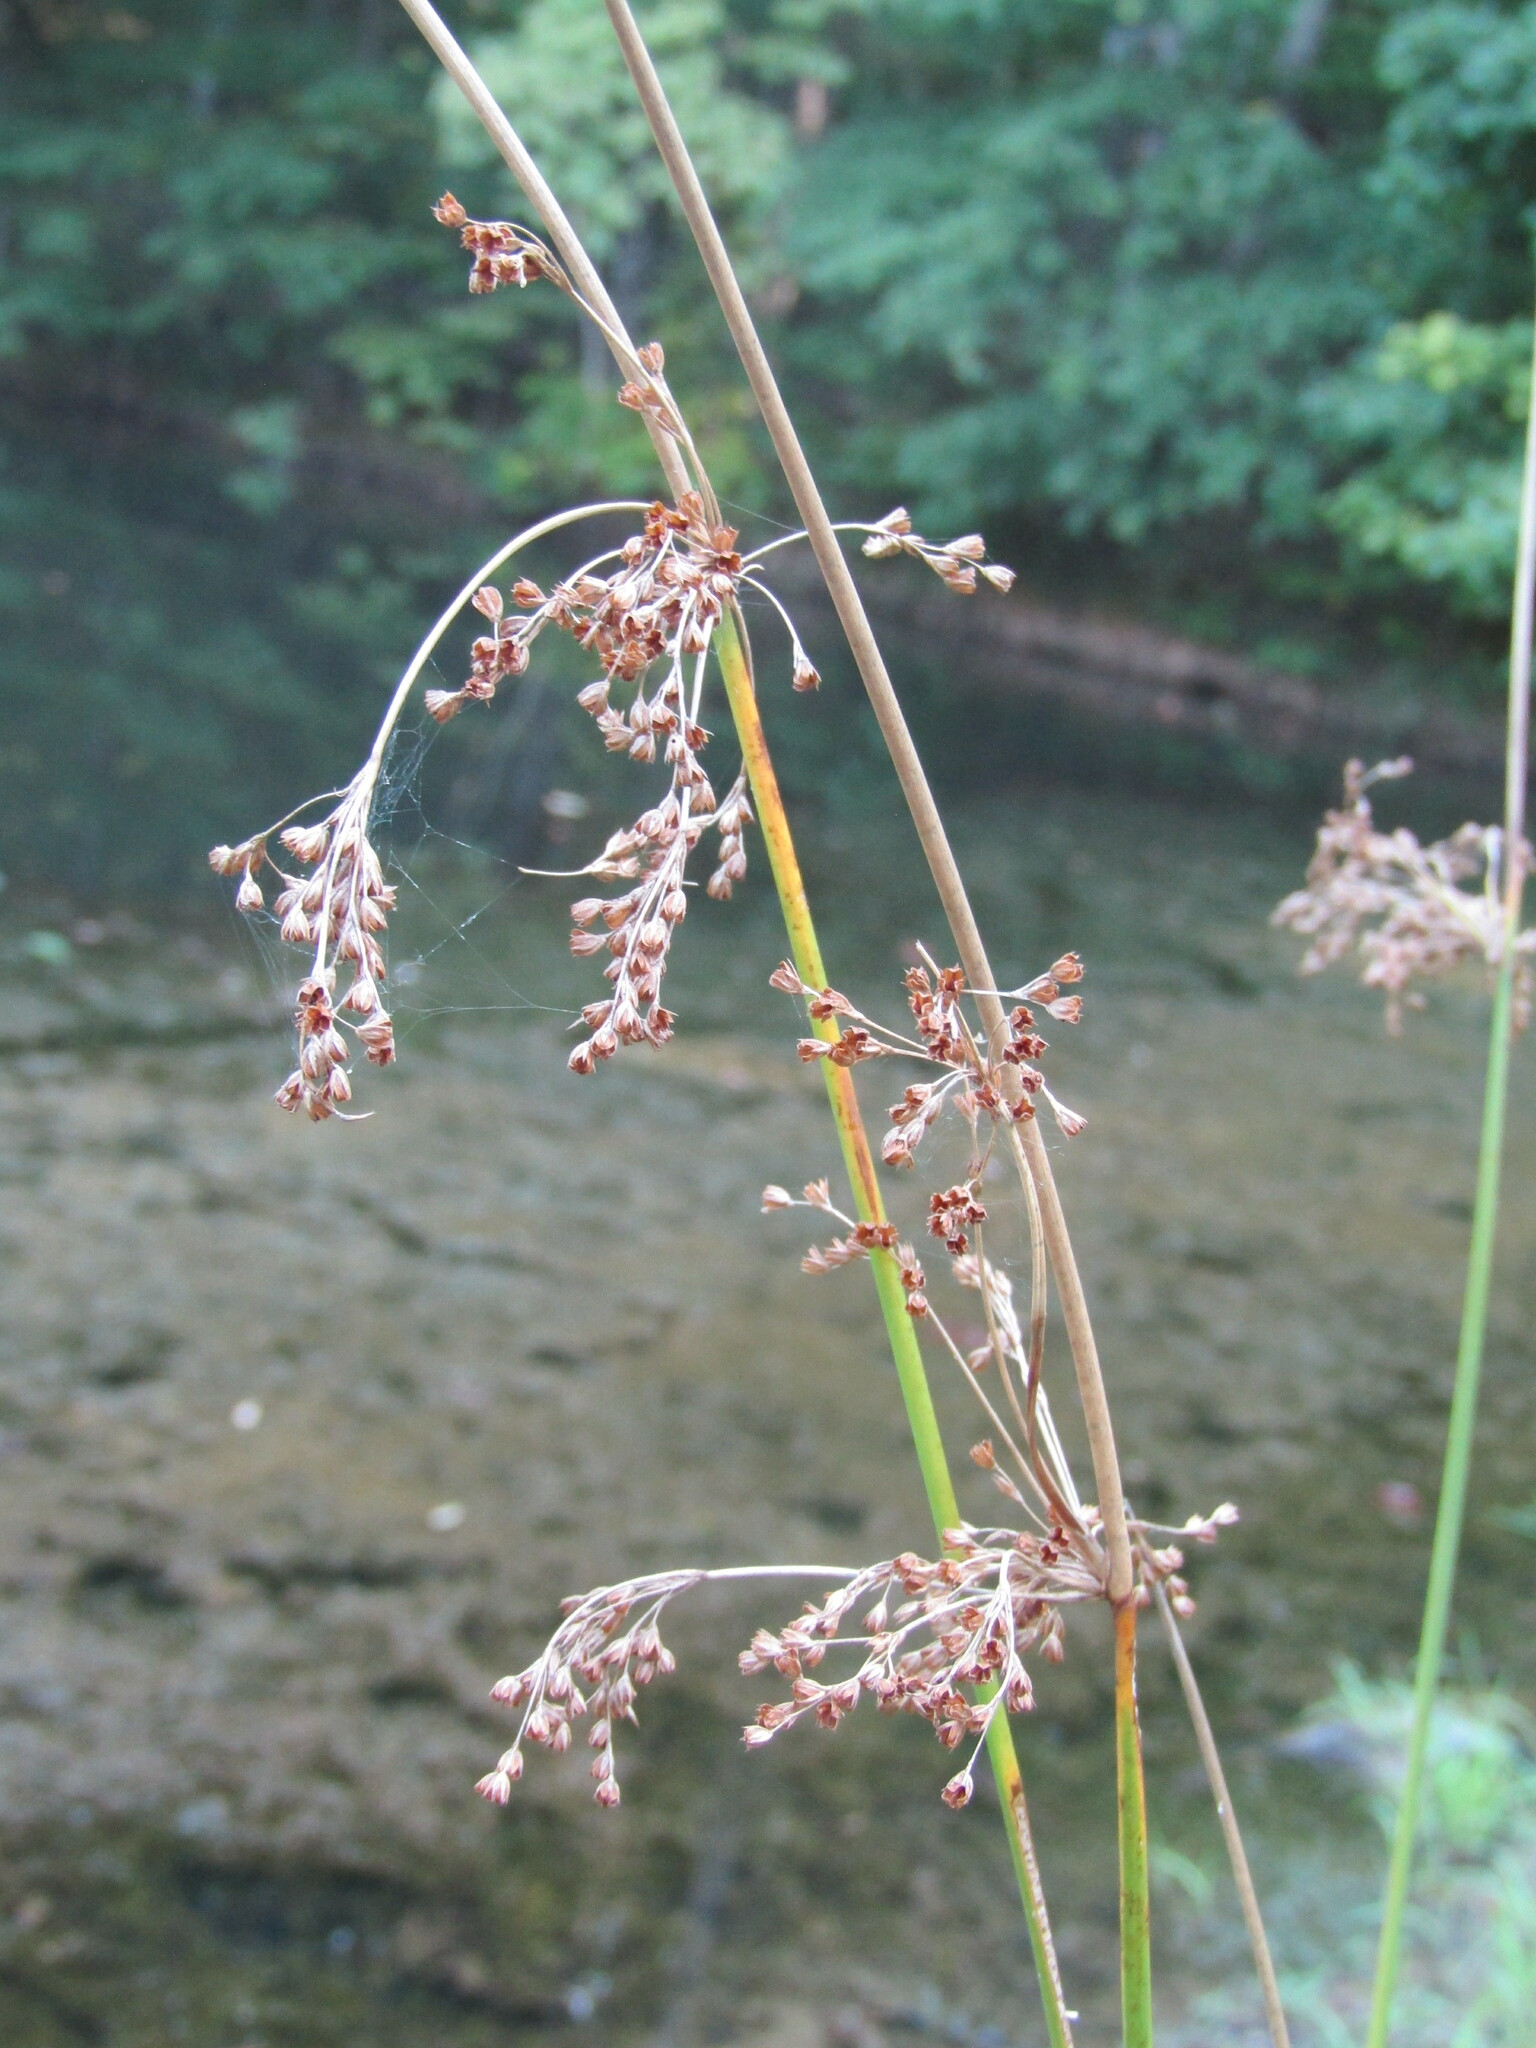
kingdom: Plantae
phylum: Tracheophyta
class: Liliopsida
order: Poales
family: Juncaceae
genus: Juncus
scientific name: Juncus effusus
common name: Soft rush
